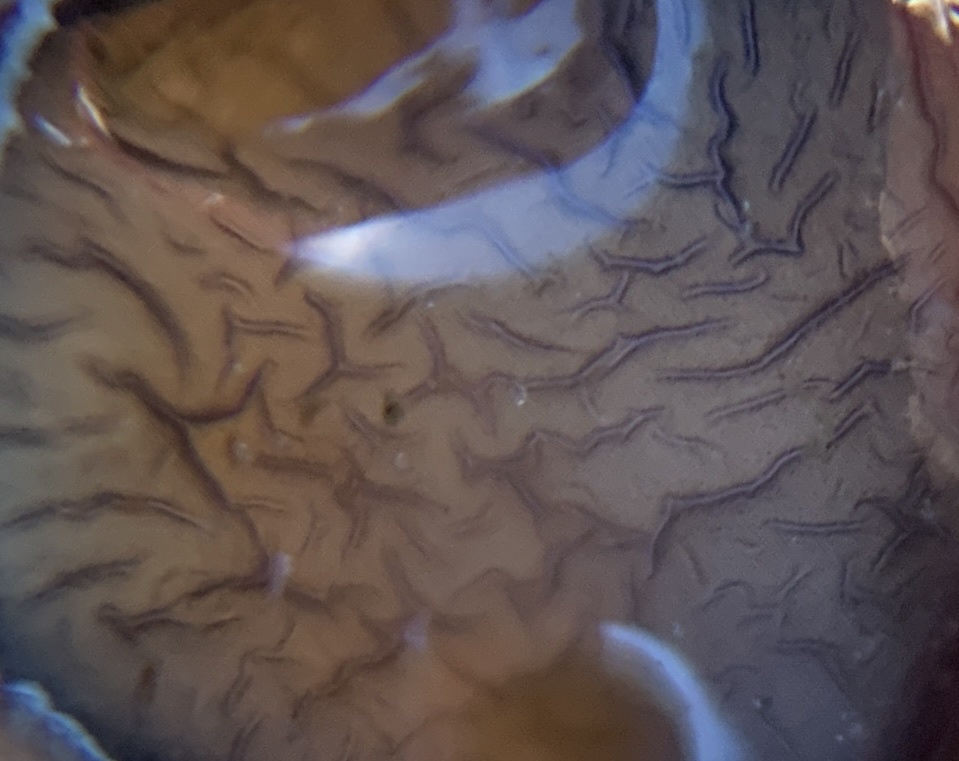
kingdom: Animalia
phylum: Mollusca
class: Gastropoda
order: Littorinimorpha
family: Calyptraeidae
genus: Crepidula
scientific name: Crepidula fornicata
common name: Slipper limpet
